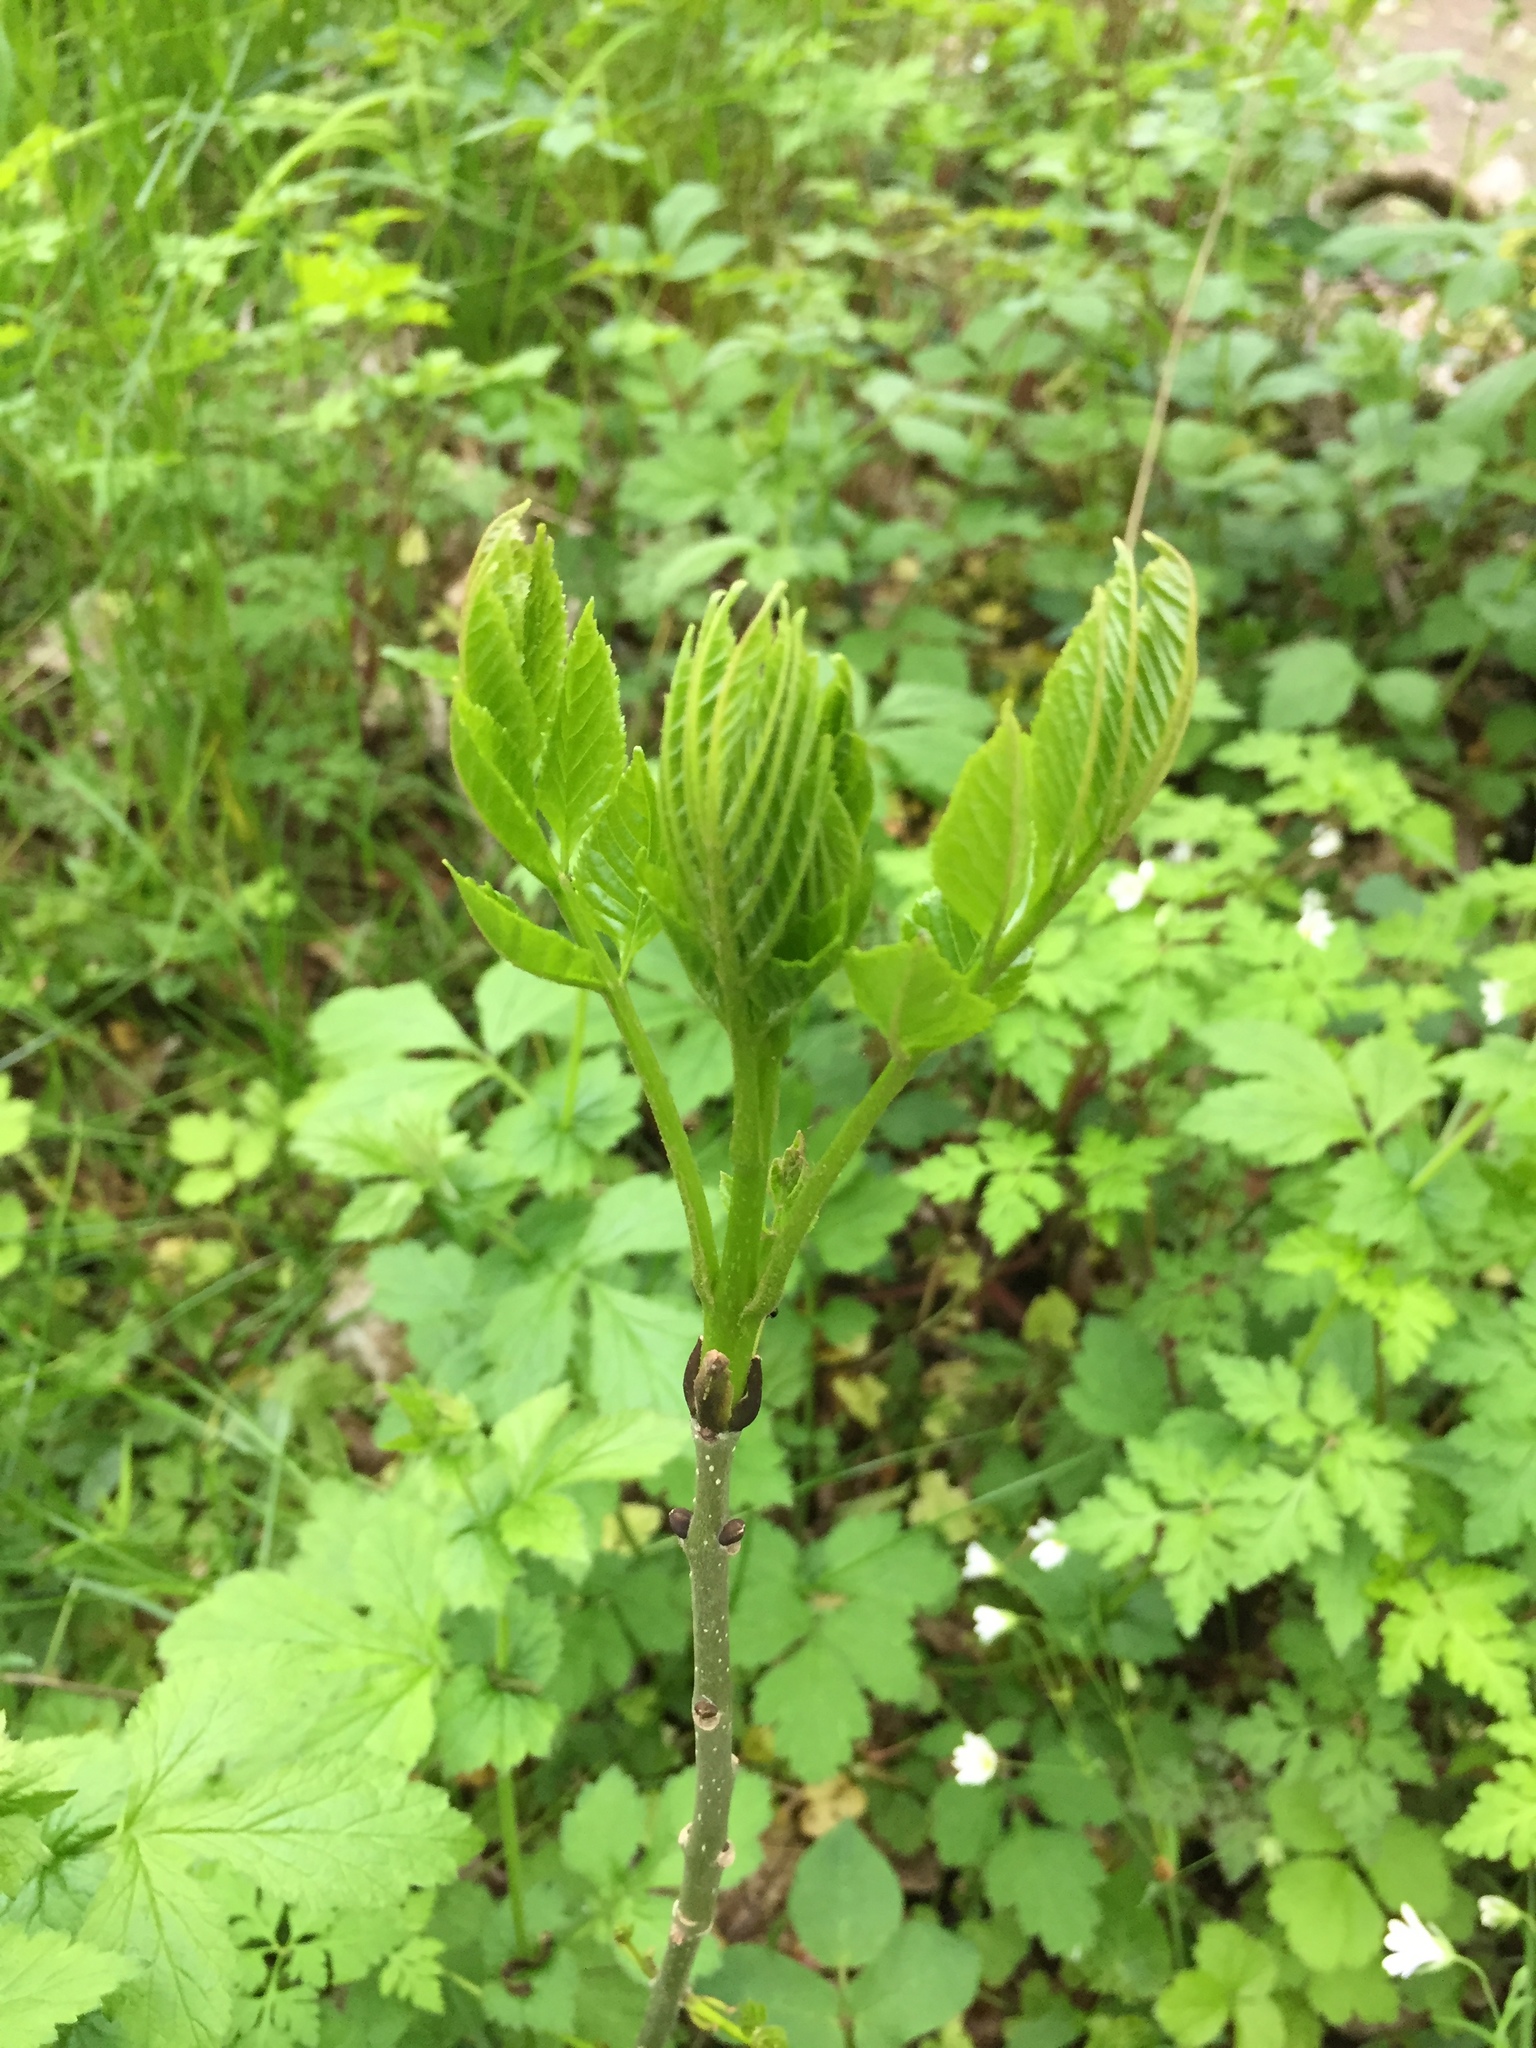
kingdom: Plantae
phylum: Tracheophyta
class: Magnoliopsida
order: Lamiales
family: Oleaceae
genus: Fraxinus
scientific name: Fraxinus excelsior
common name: European ash
